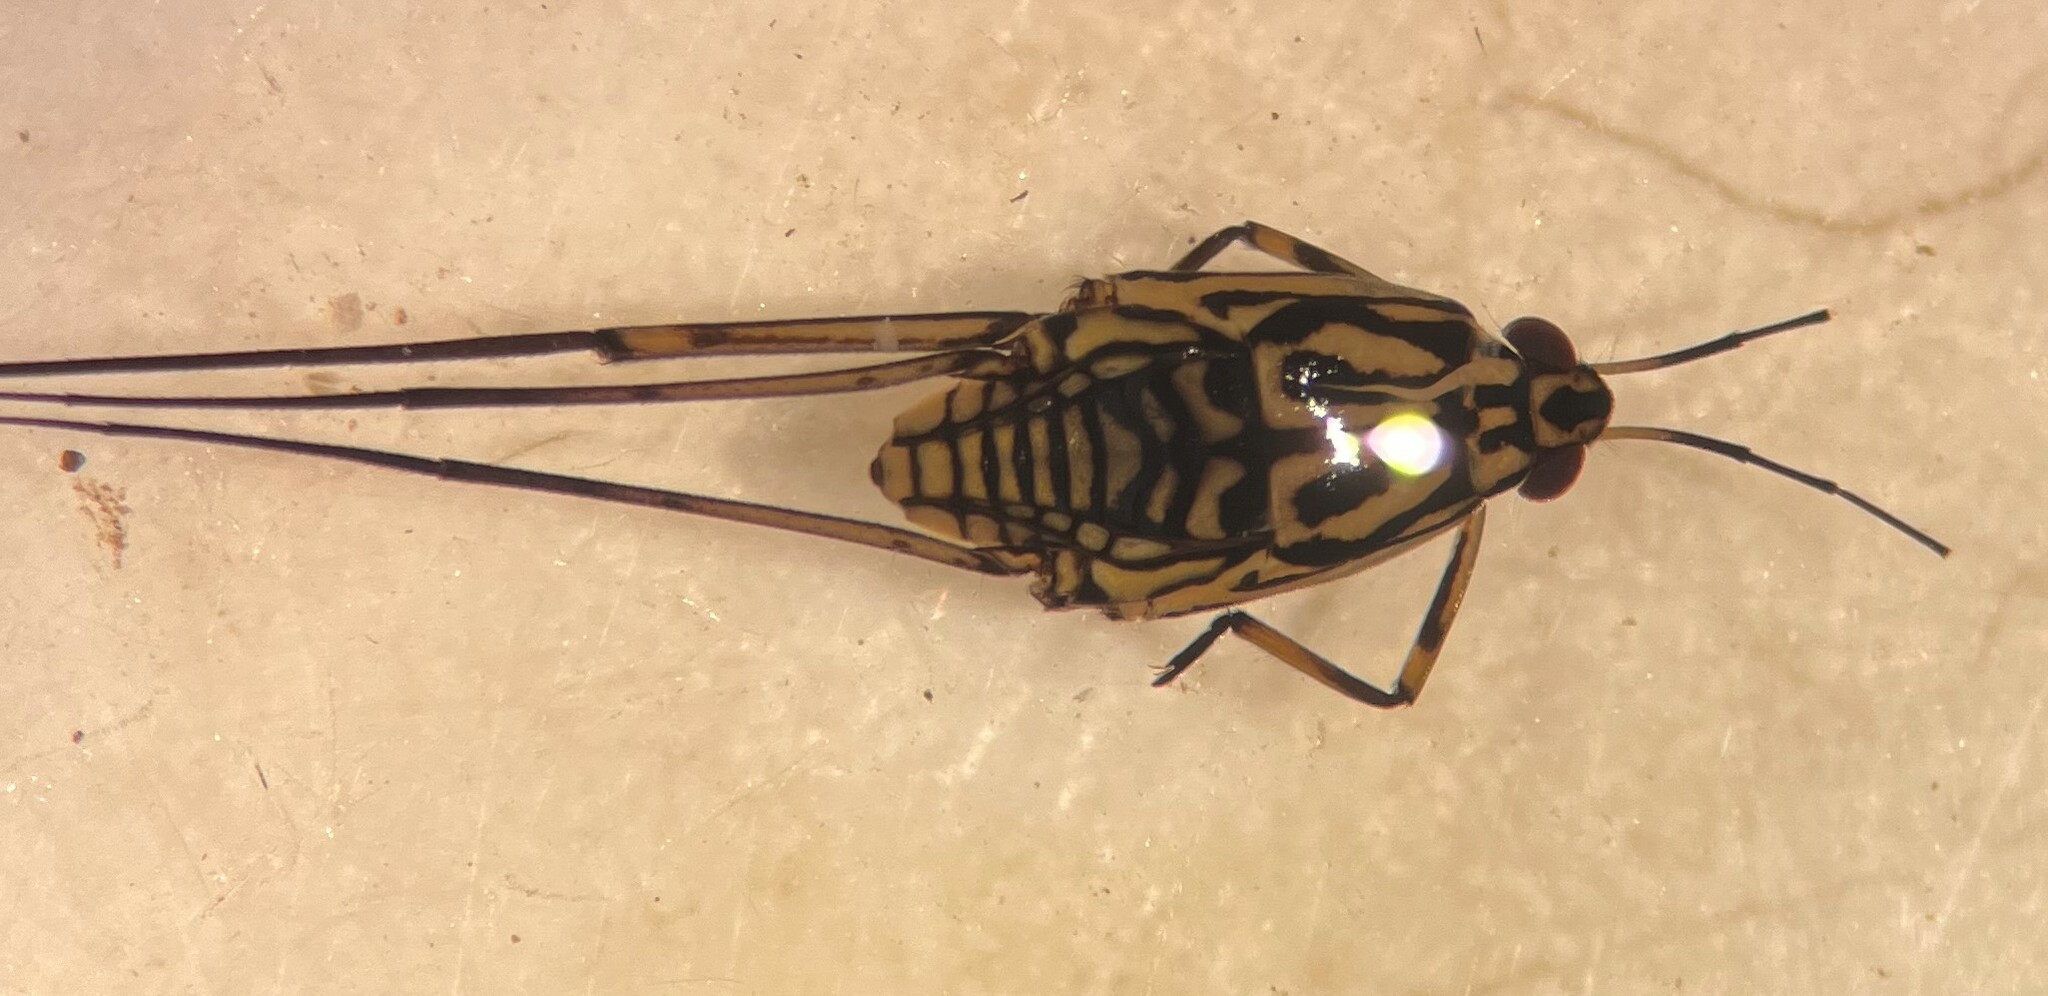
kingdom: Animalia
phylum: Arthropoda
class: Insecta
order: Hemiptera
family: Gerridae
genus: Trepobates
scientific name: Trepobates inermis
